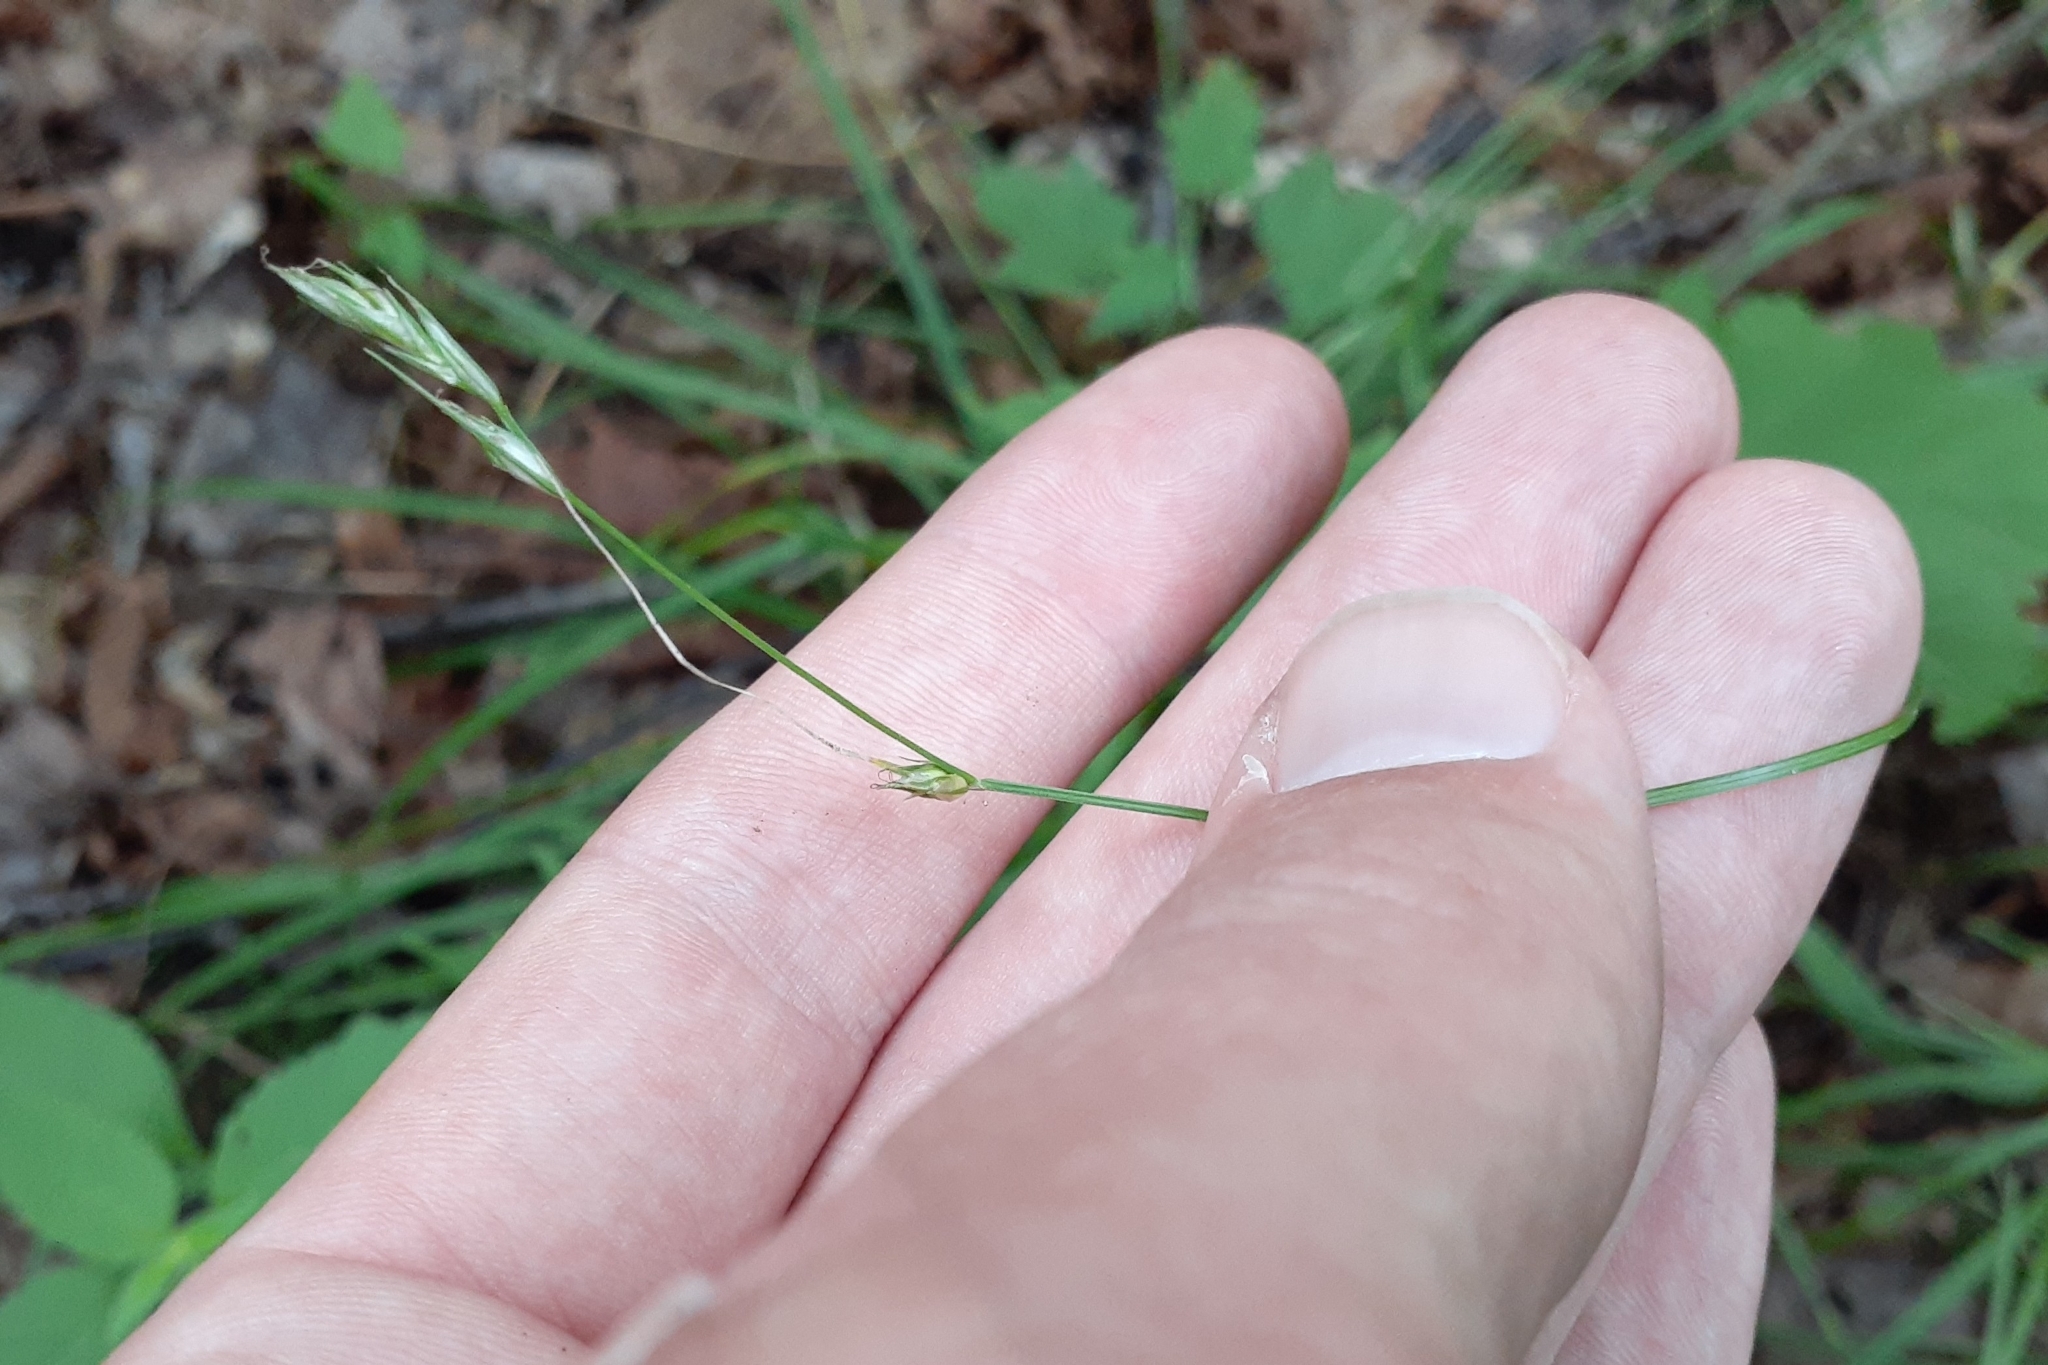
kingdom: Plantae
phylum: Tracheophyta
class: Liliopsida
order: Poales
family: Cyperaceae
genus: Carex
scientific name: Carex deweyana
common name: Dewey's sedge
